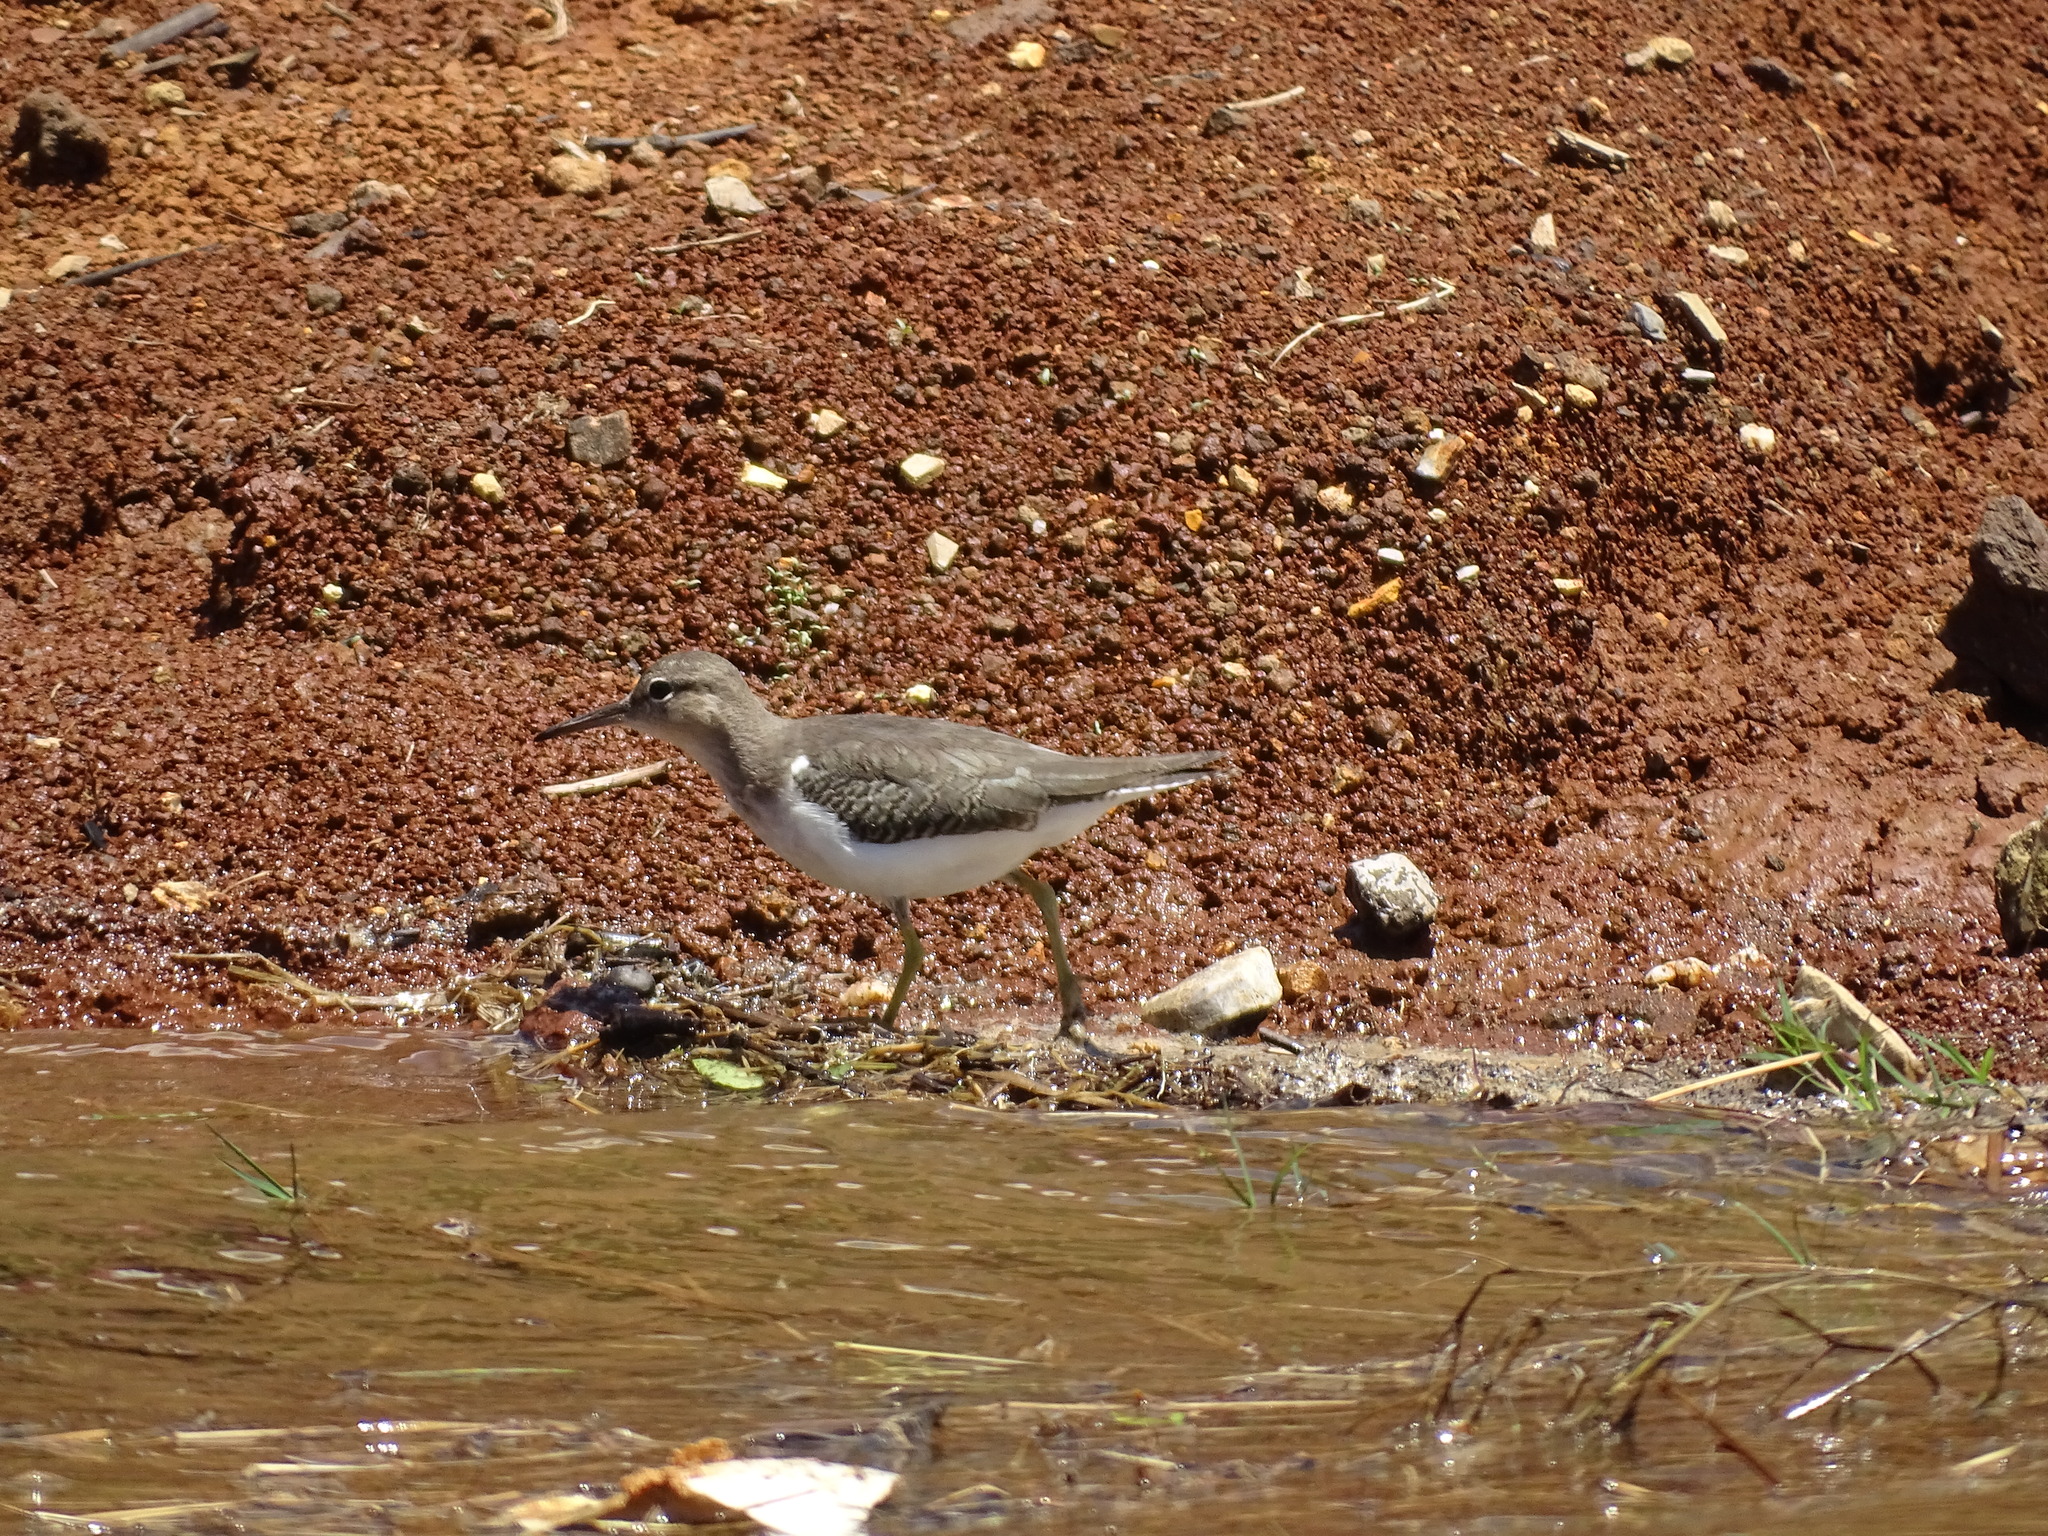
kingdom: Animalia
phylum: Chordata
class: Aves
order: Charadriiformes
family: Scolopacidae
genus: Actitis
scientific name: Actitis macularius
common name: Spotted sandpiper
